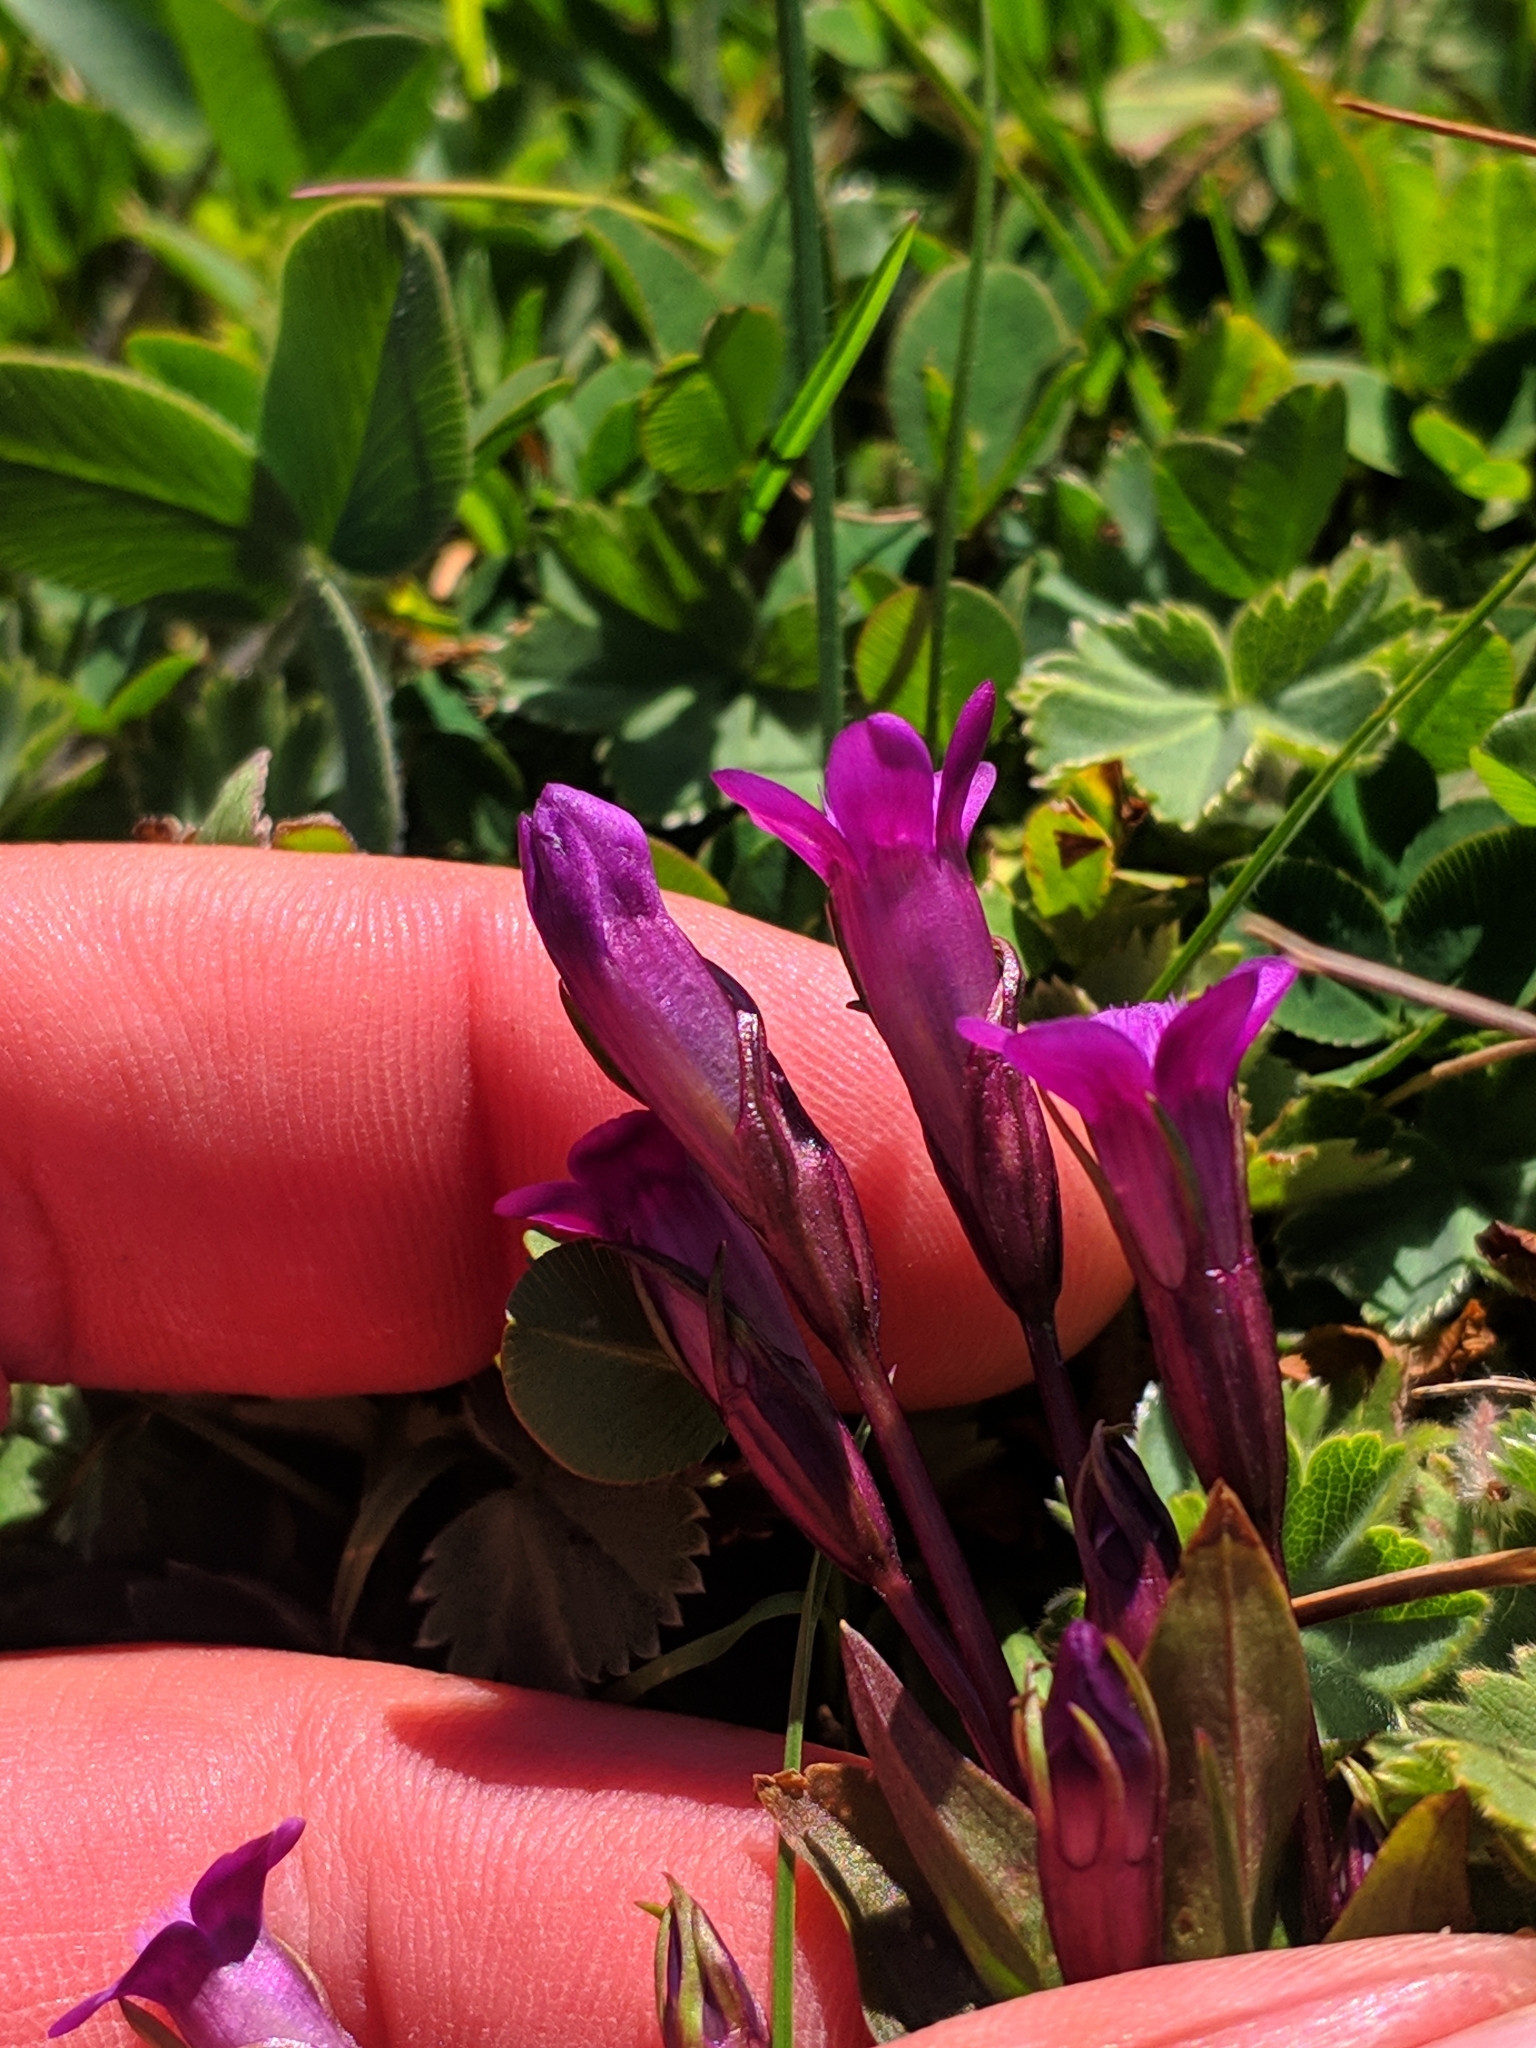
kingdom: Plantae
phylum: Tracheophyta
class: Magnoliopsida
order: Gentianales
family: Gentianaceae
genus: Gentianella
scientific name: Gentianella caucasea
